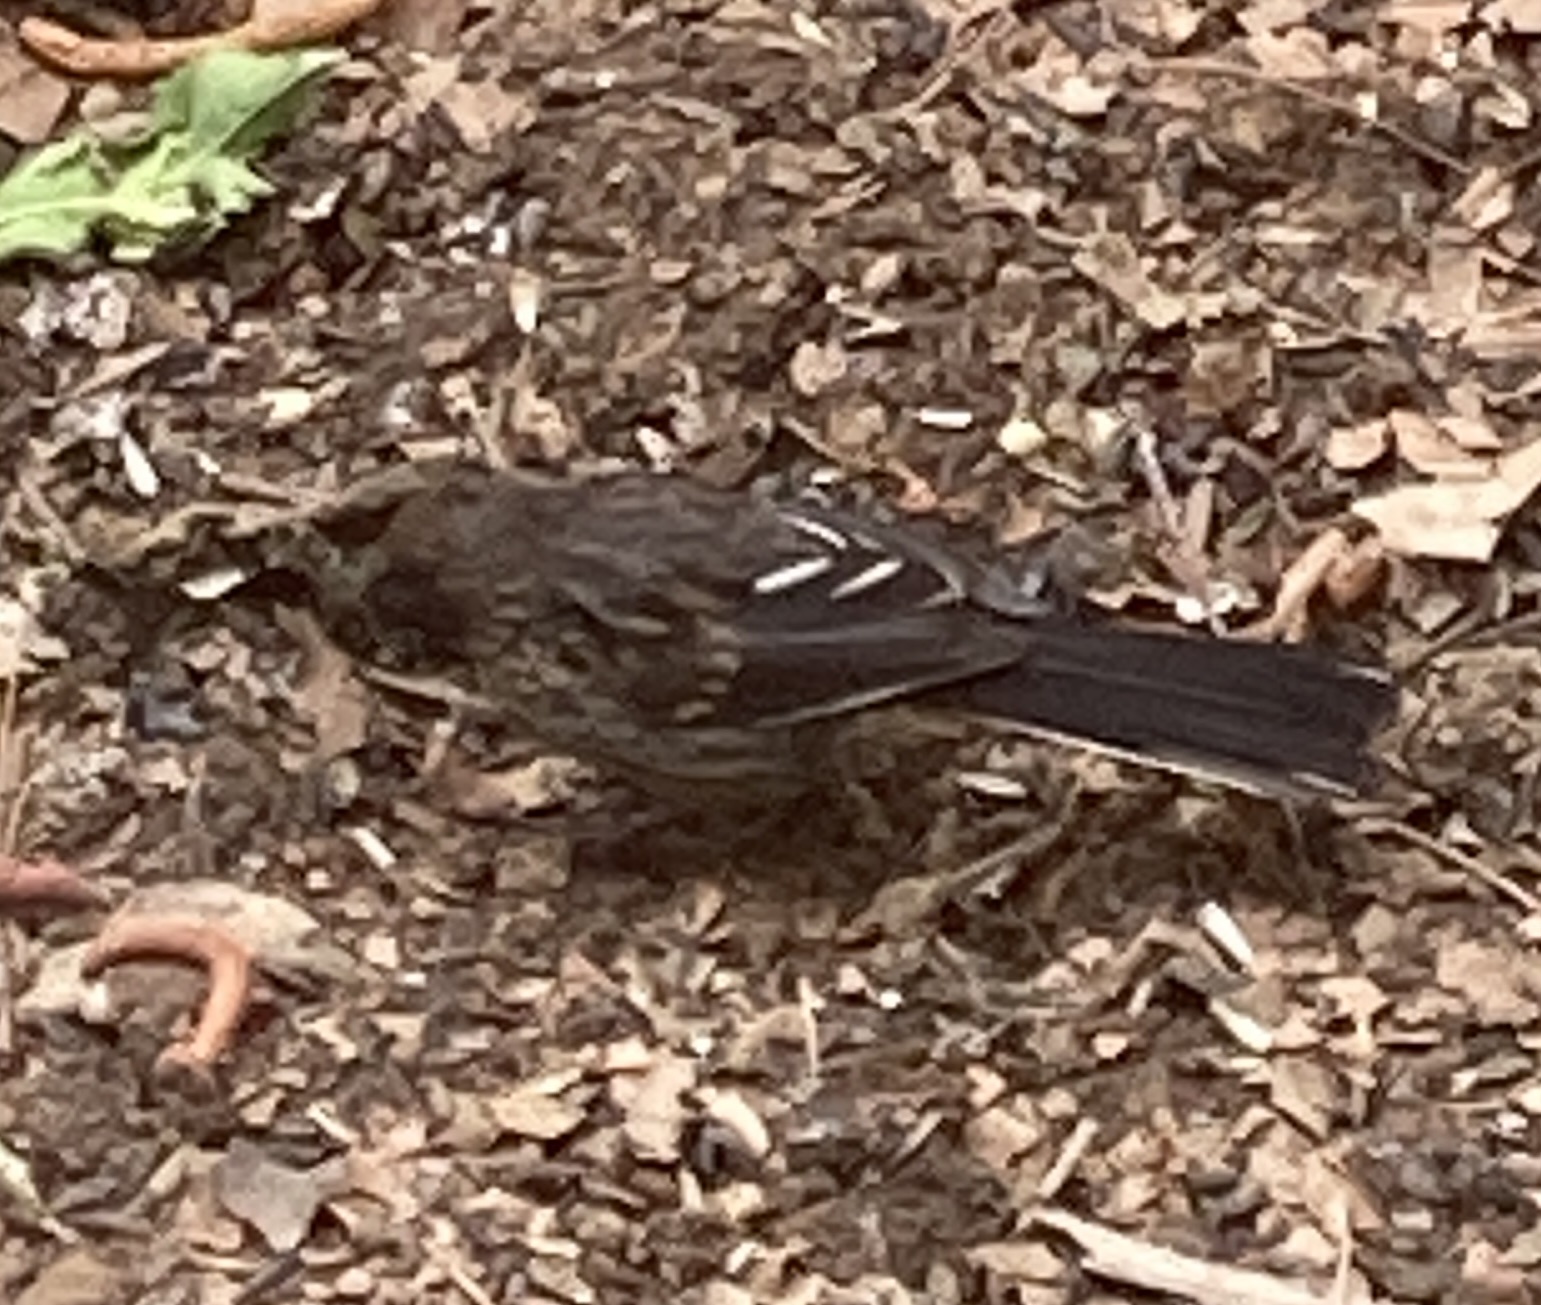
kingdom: Animalia
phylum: Chordata
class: Aves
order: Passeriformes
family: Passerellidae
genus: Pipilo
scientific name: Pipilo maculatus
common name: Spotted towhee
